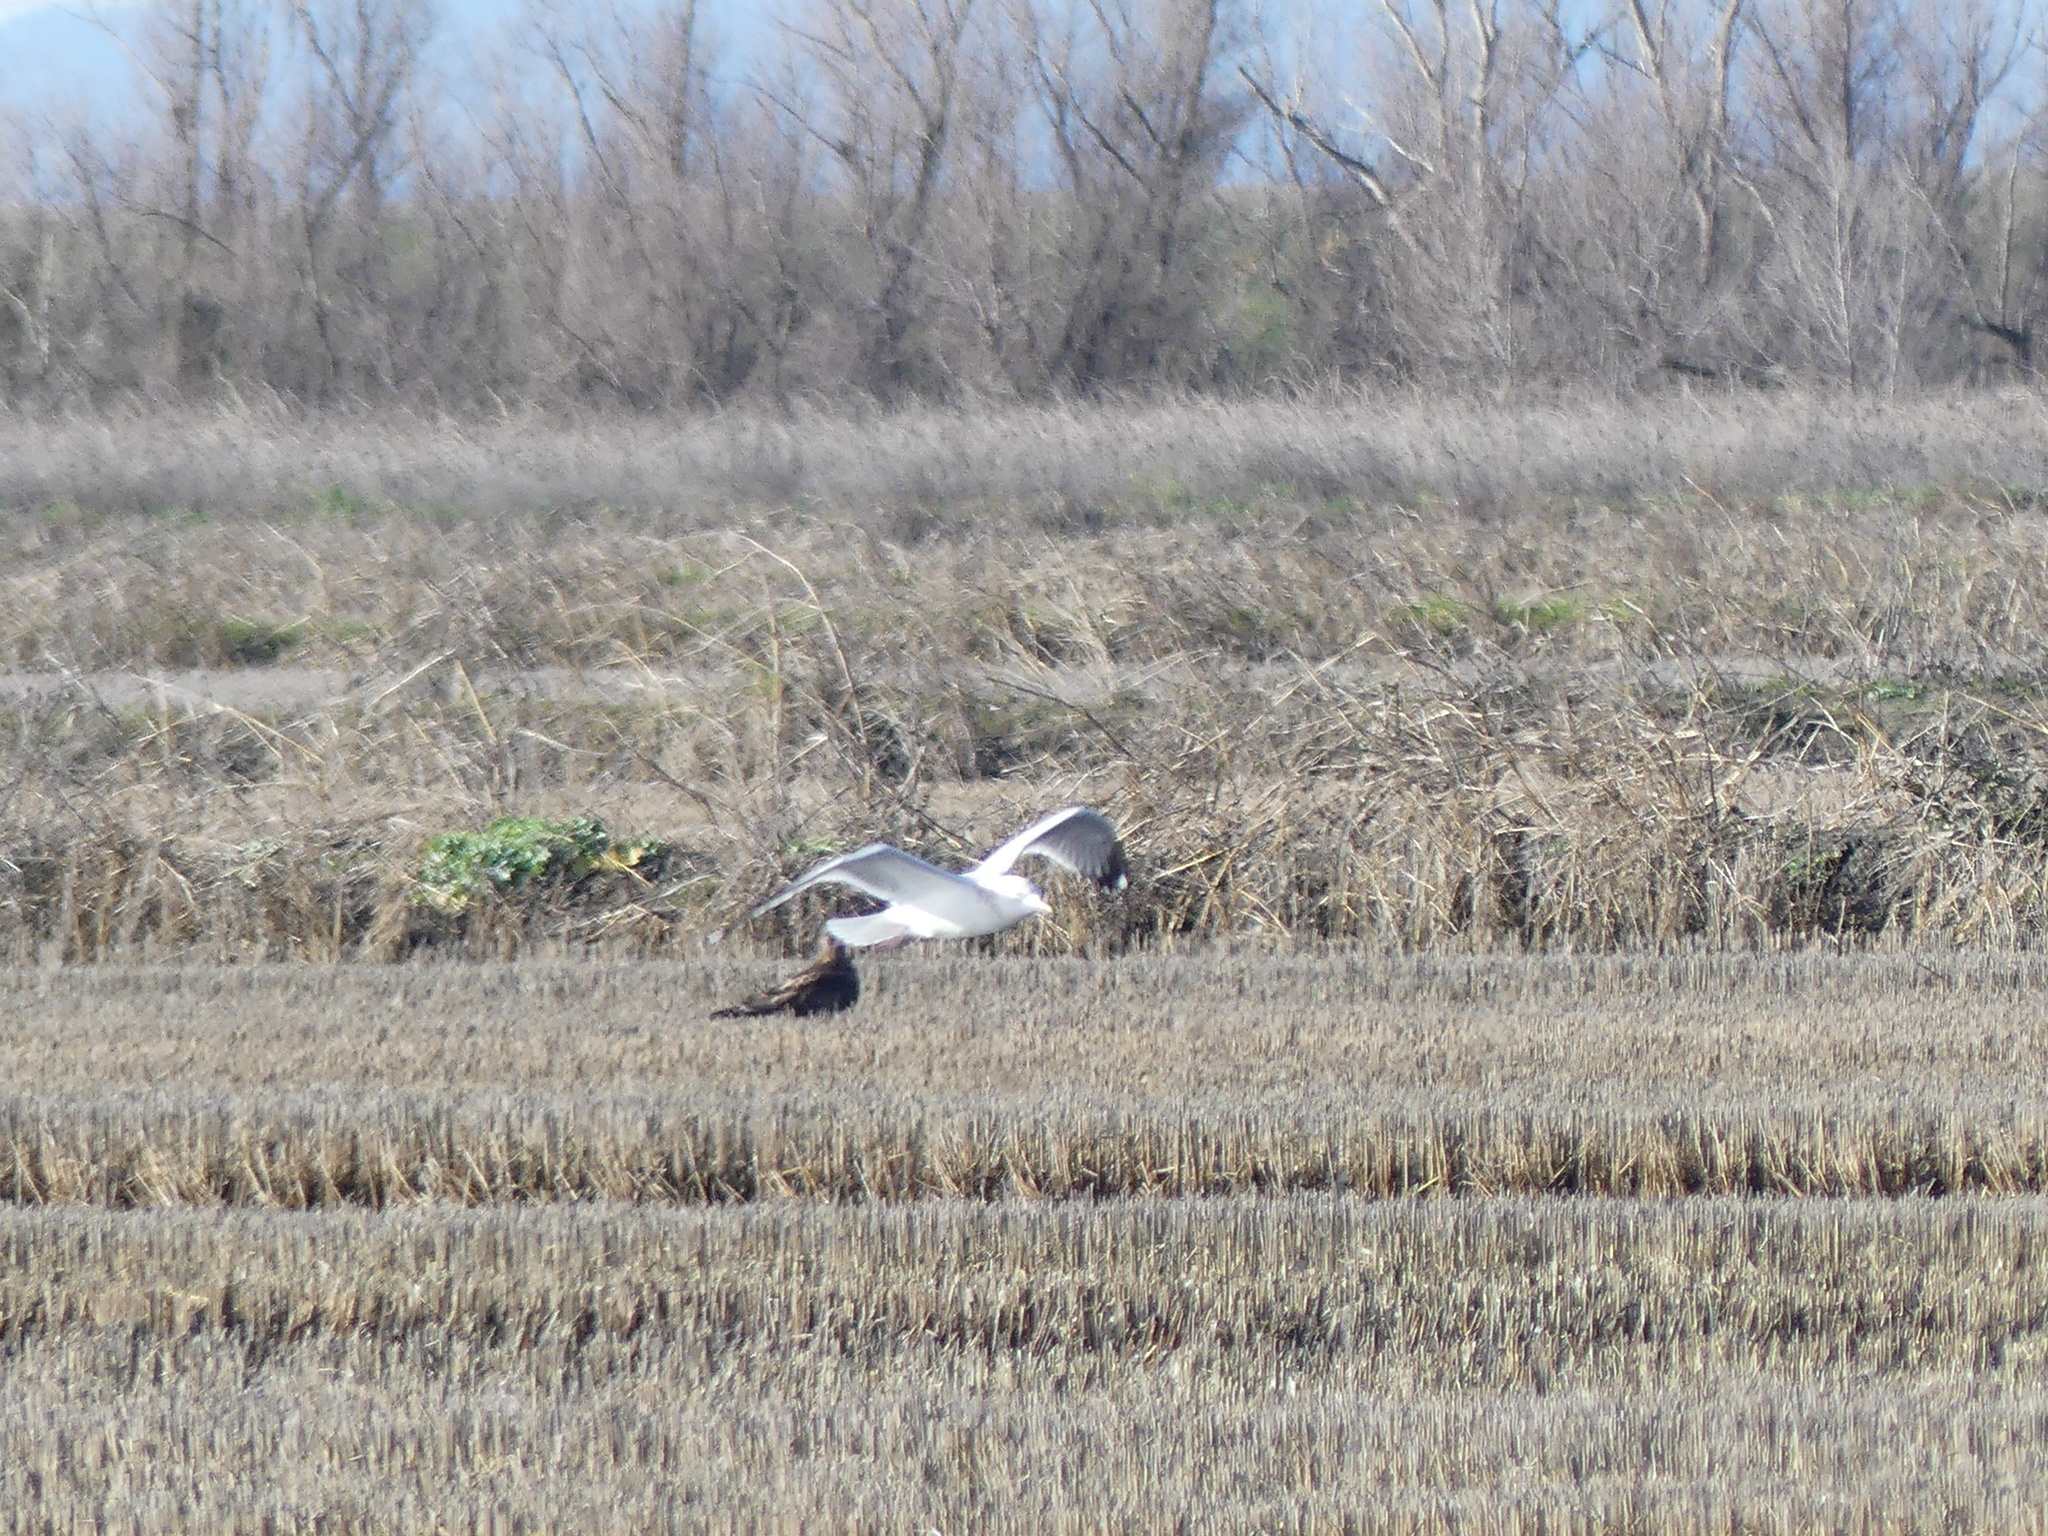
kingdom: Animalia
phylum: Chordata
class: Aves
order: Charadriiformes
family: Laridae
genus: Larus
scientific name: Larus argentatus
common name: Herring gull
